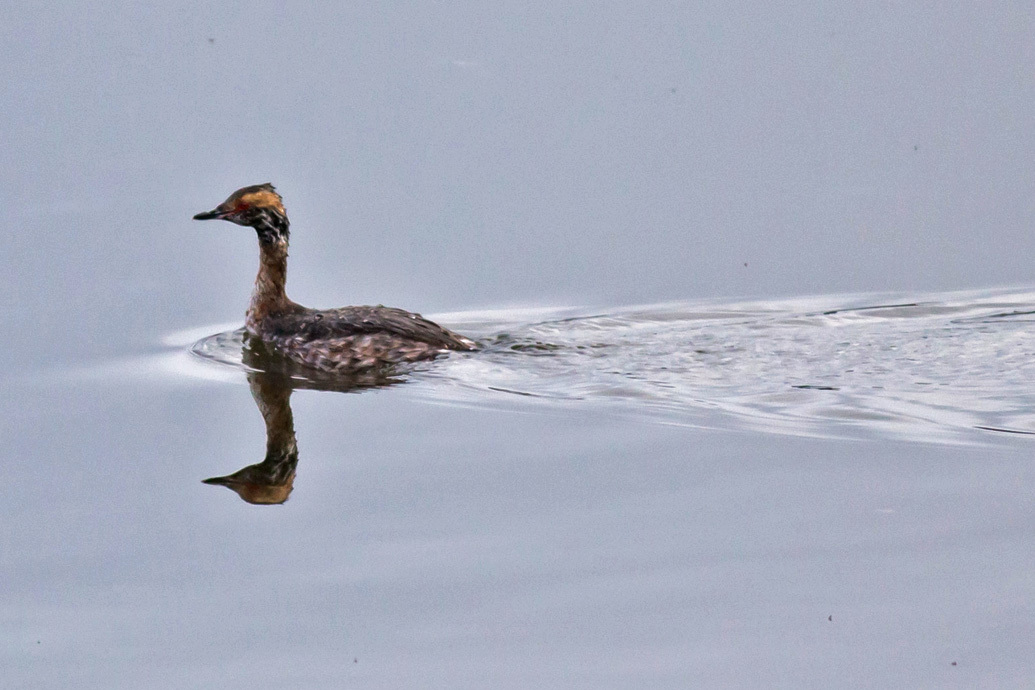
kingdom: Animalia
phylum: Chordata
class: Aves
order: Podicipediformes
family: Podicipedidae
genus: Podiceps
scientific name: Podiceps auritus
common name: Horned grebe
